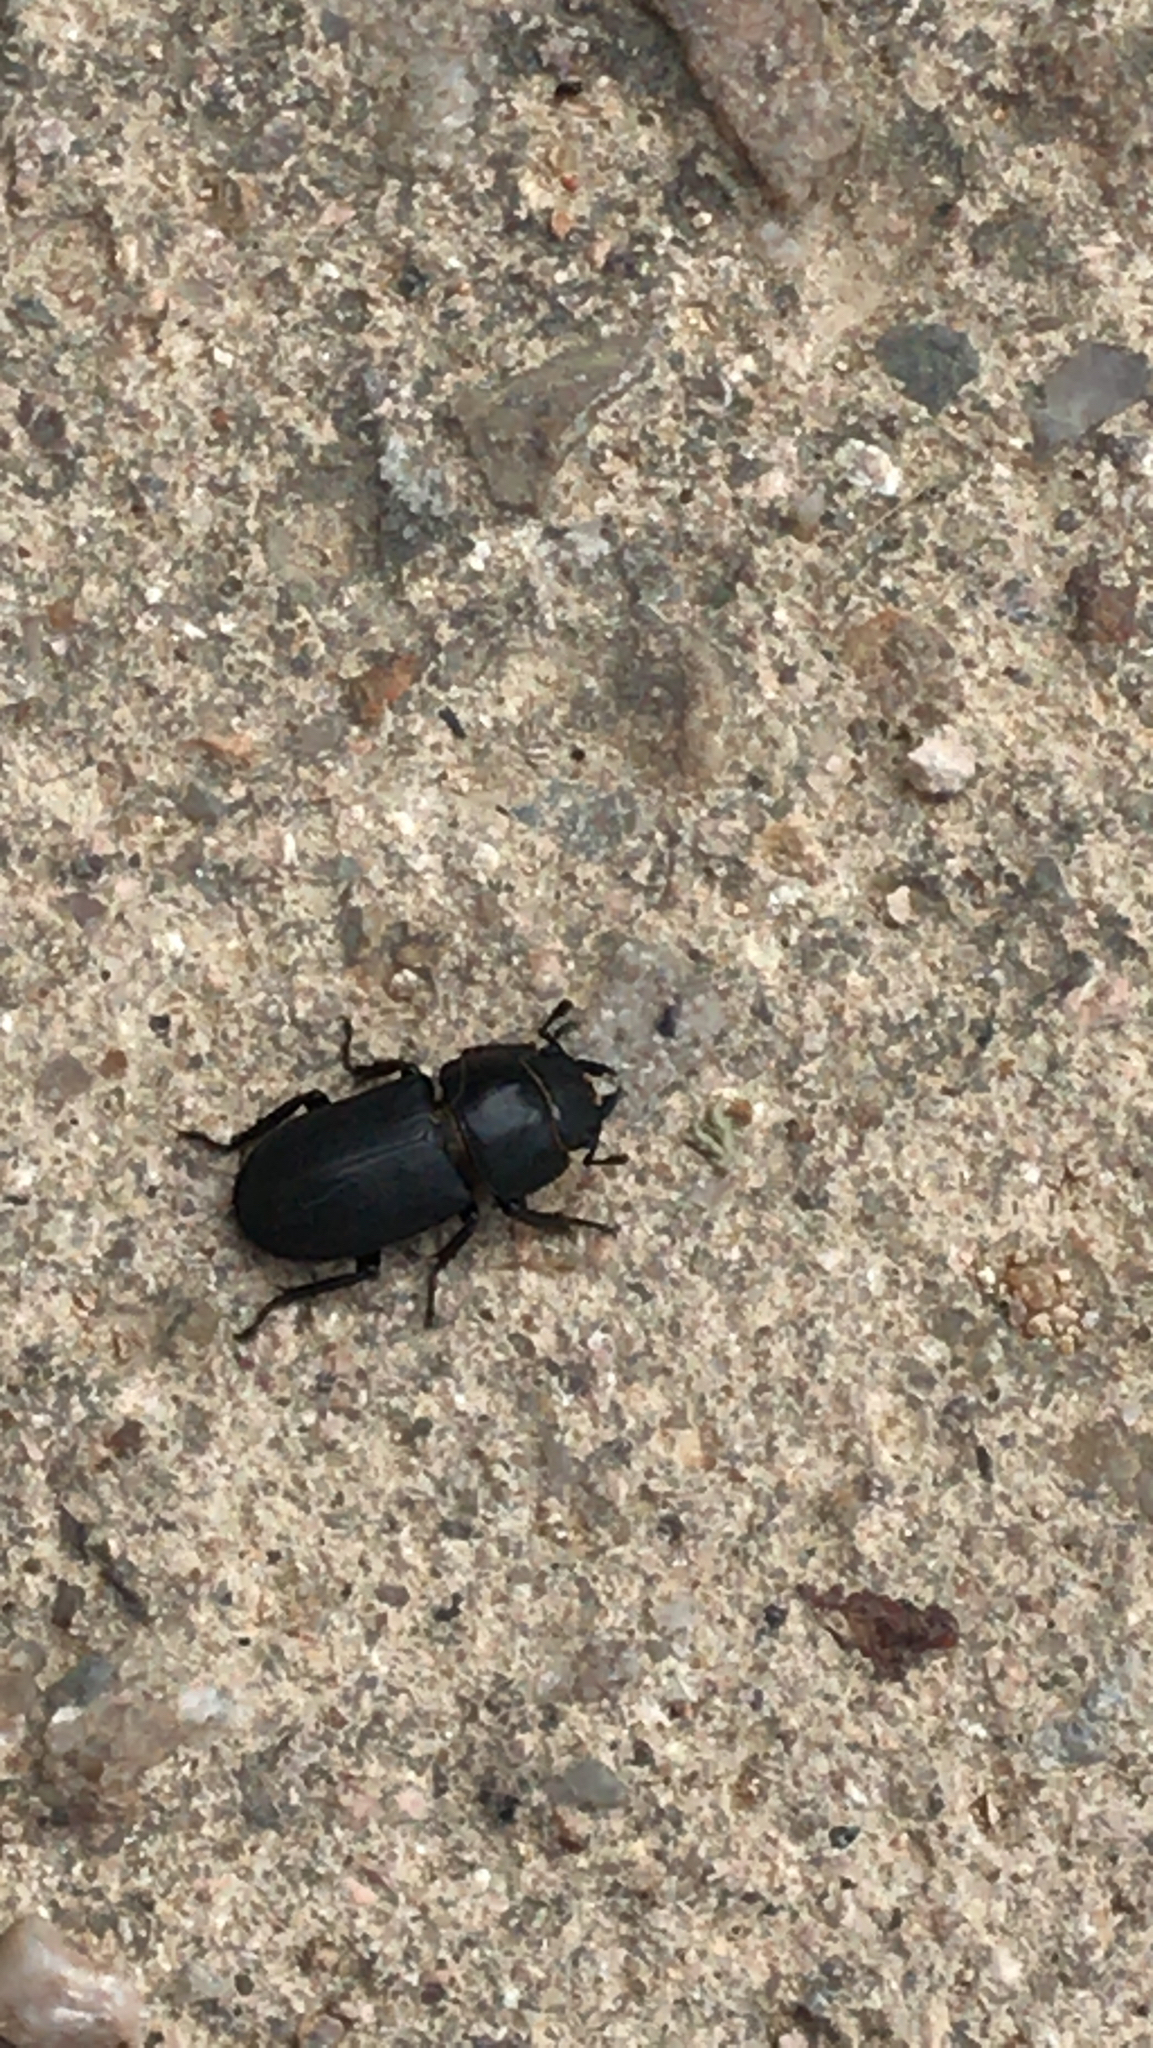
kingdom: Animalia
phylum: Arthropoda
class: Insecta
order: Coleoptera
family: Lucanidae
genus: Dorcus
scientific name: Dorcus parallelipipedus
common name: Lesser stag beetle
